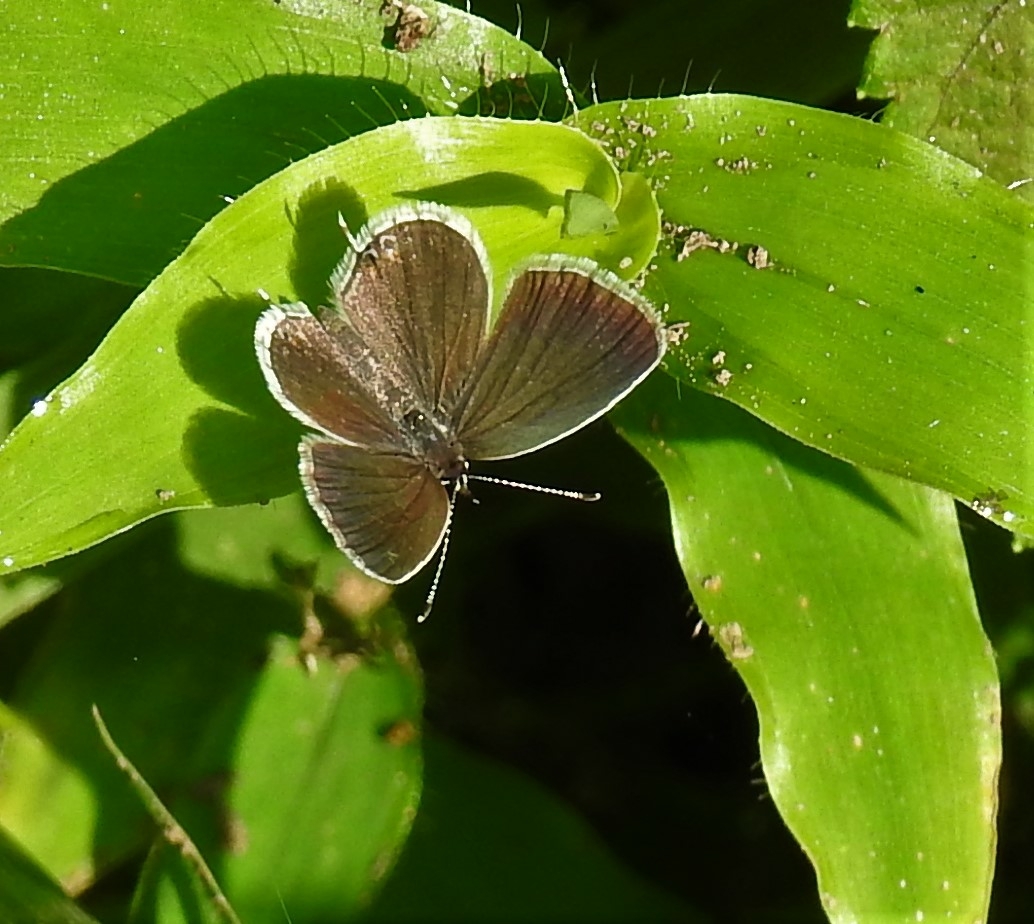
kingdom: Animalia
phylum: Arthropoda
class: Insecta
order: Lepidoptera
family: Lycaenidae
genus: Elkalyce
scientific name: Elkalyce comyntas
